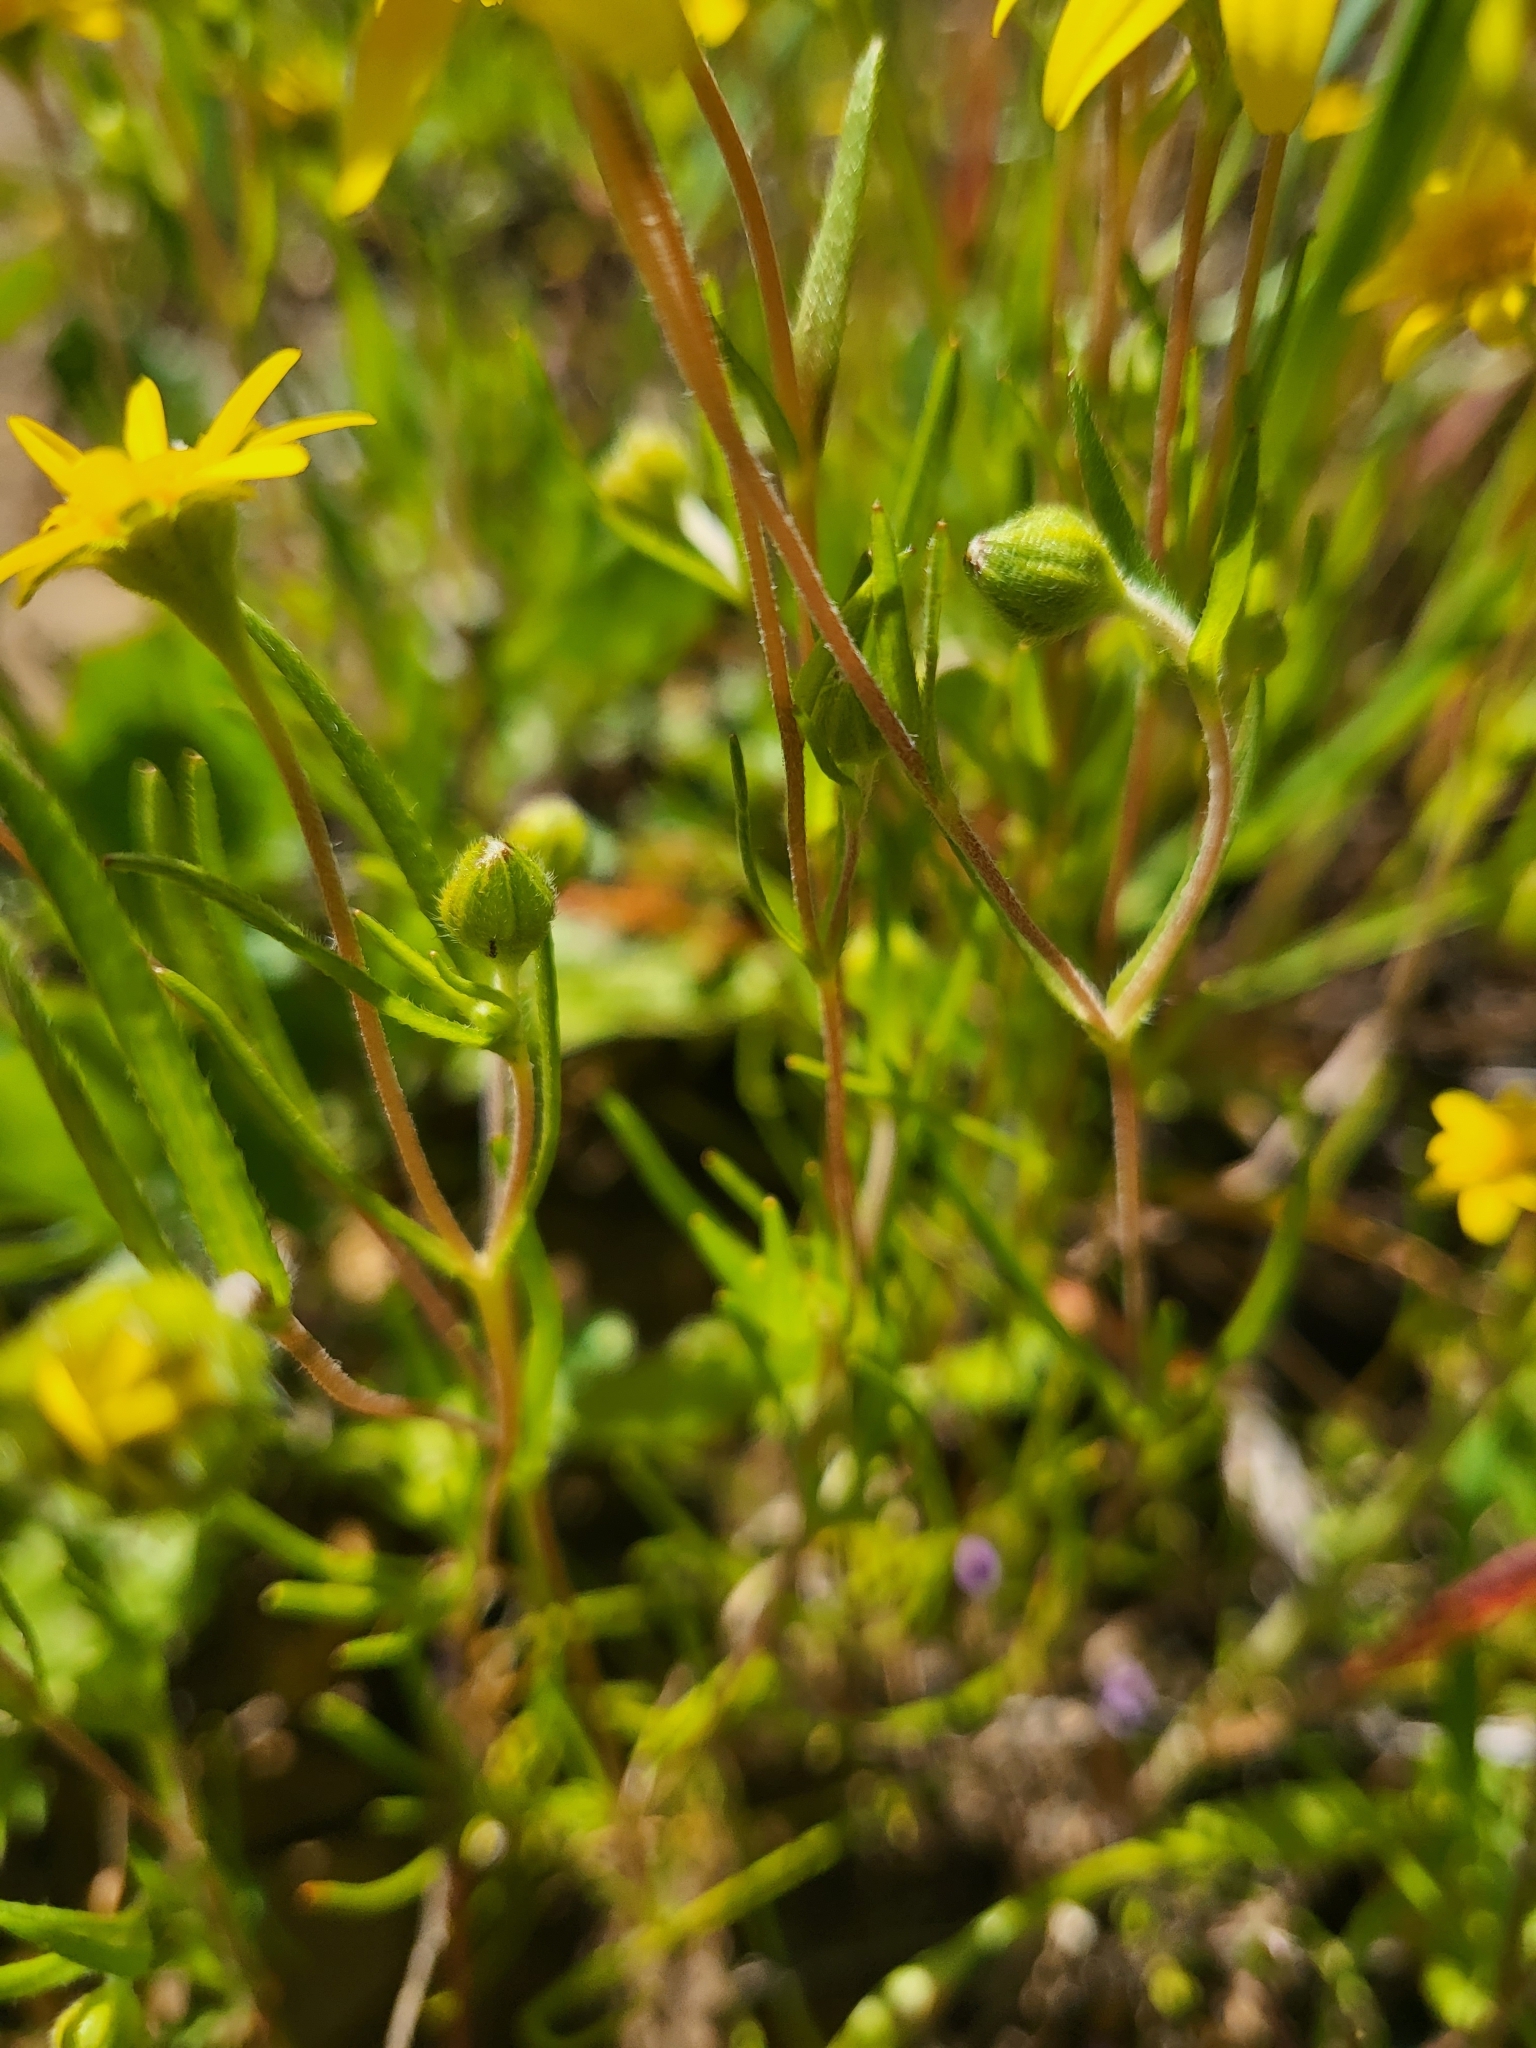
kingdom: Plantae
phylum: Tracheophyta
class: Magnoliopsida
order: Asterales
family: Asteraceae
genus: Lasthenia
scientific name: Lasthenia gracilis
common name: Common goldfields
